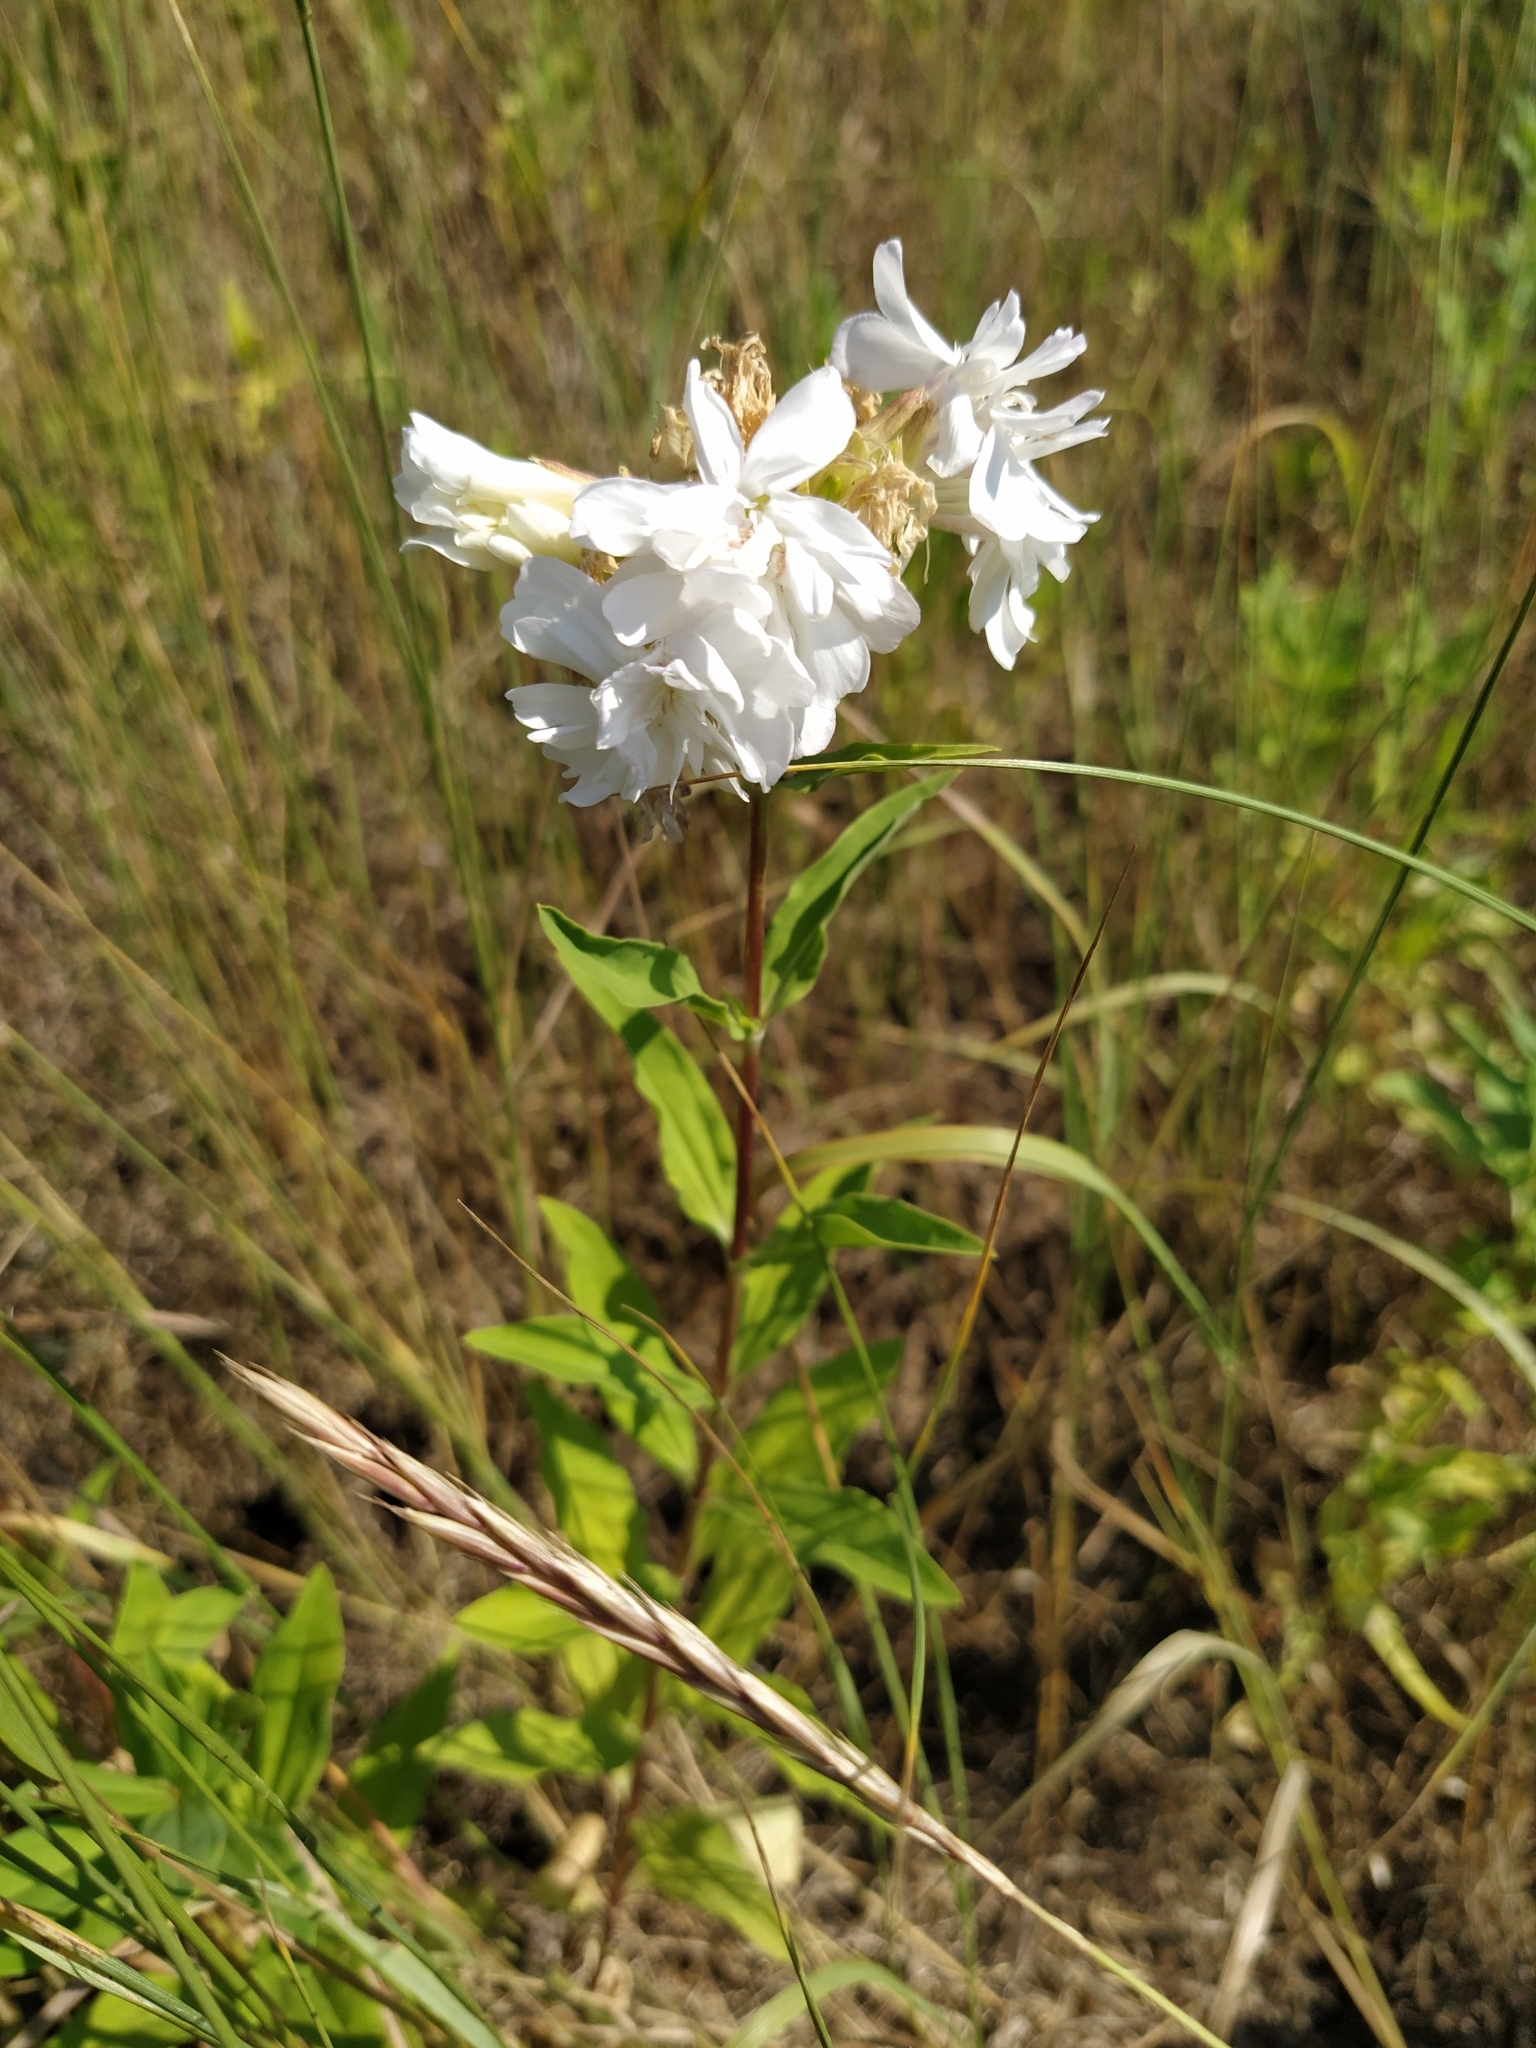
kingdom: Plantae
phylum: Tracheophyta
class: Magnoliopsida
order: Caryophyllales
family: Caryophyllaceae
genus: Saponaria
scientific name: Saponaria officinalis
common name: Soapwort
